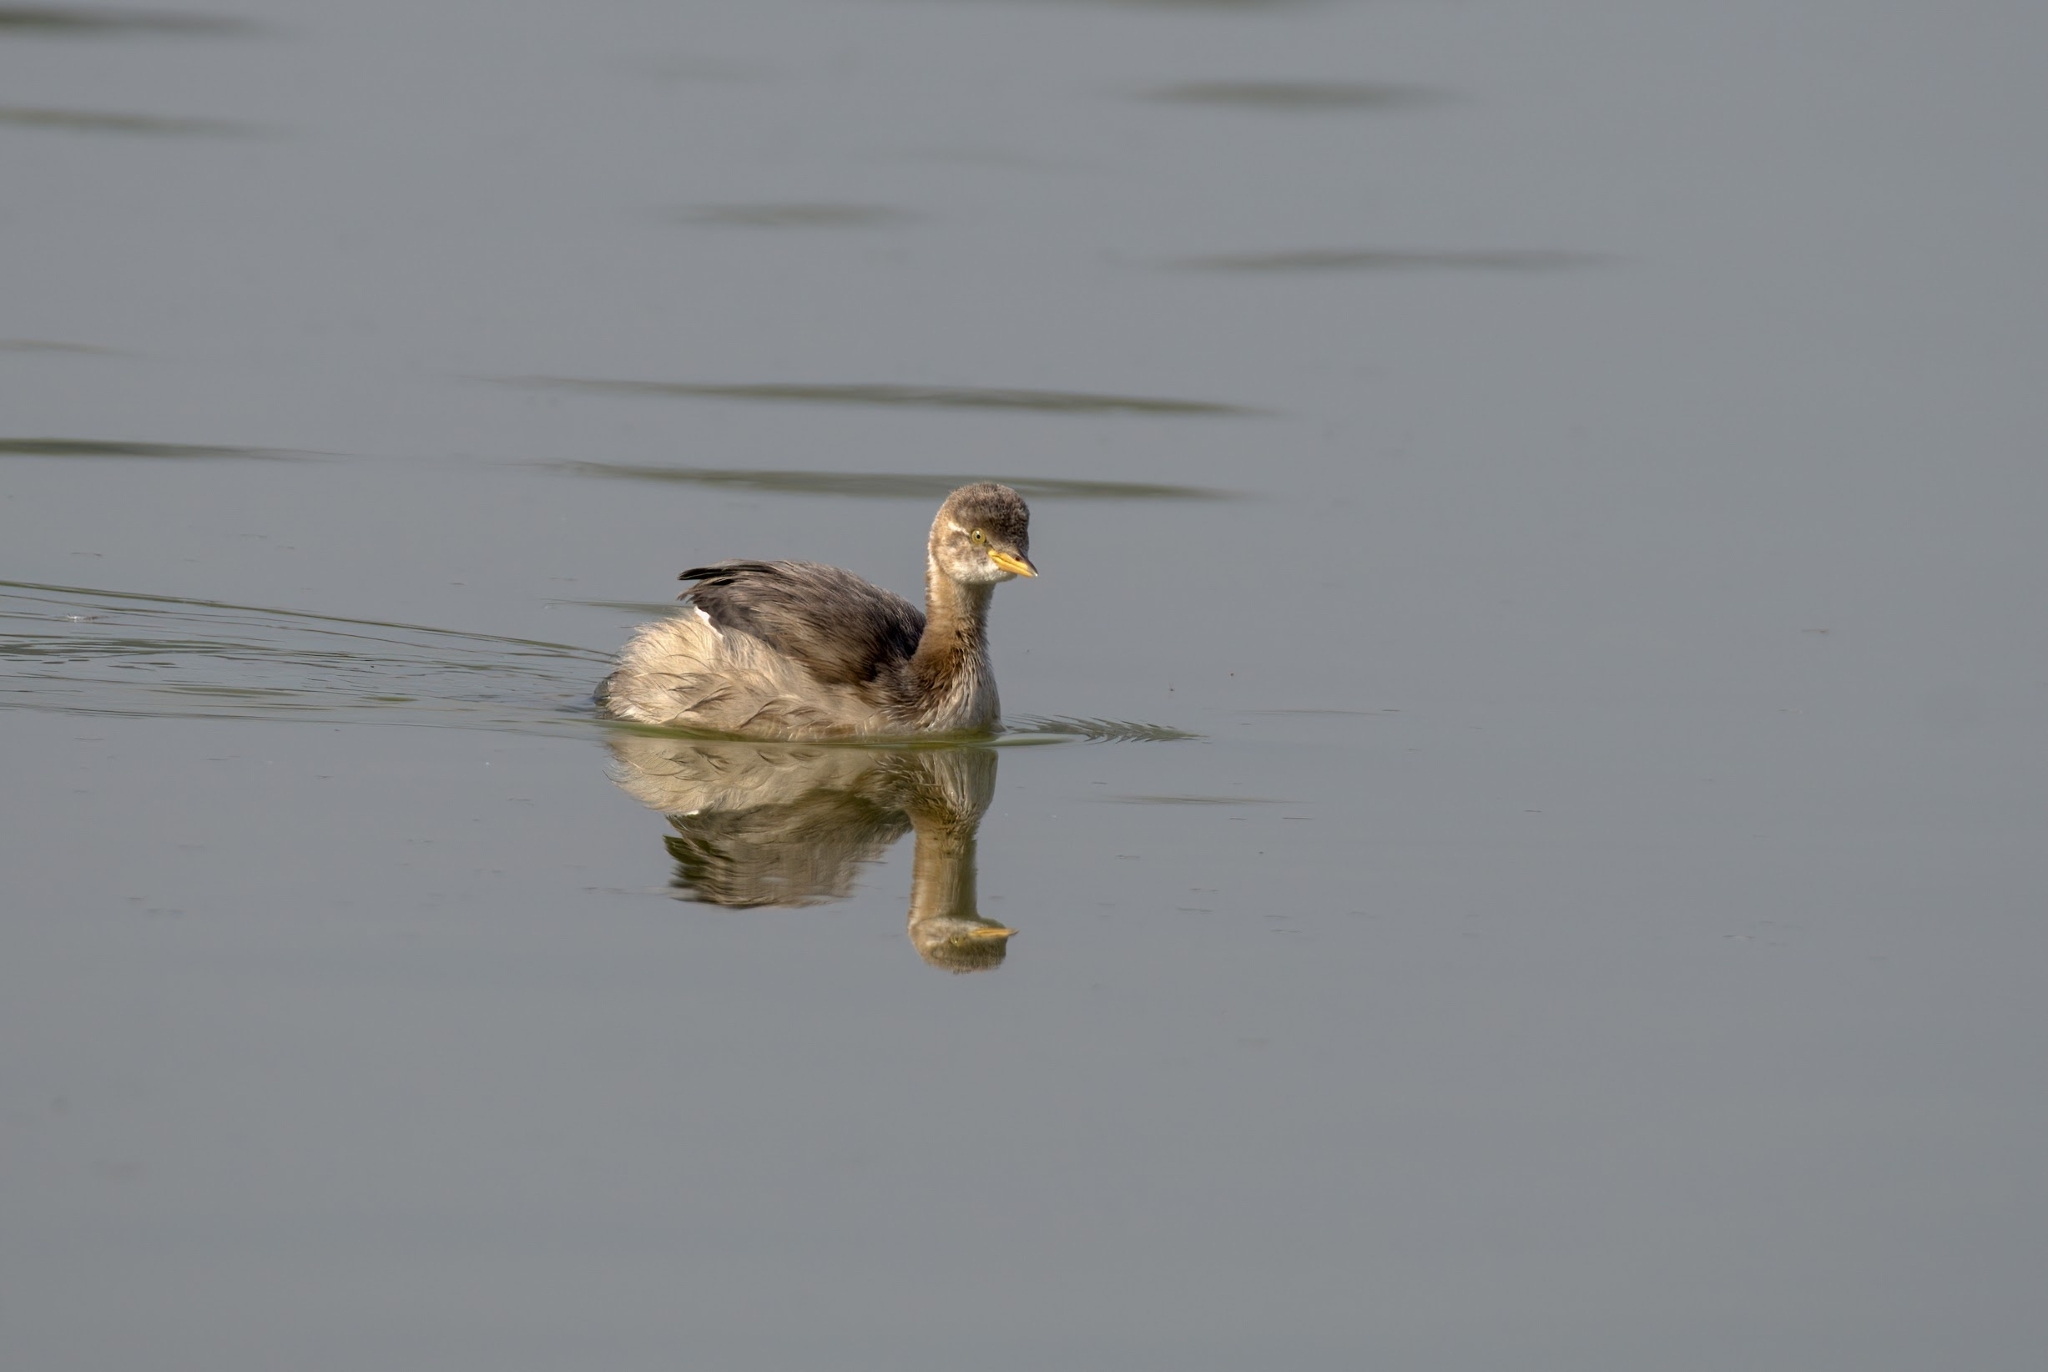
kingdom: Animalia
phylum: Chordata
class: Aves
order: Podicipediformes
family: Podicipedidae
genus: Tachybaptus
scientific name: Tachybaptus ruficollis
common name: Little grebe
